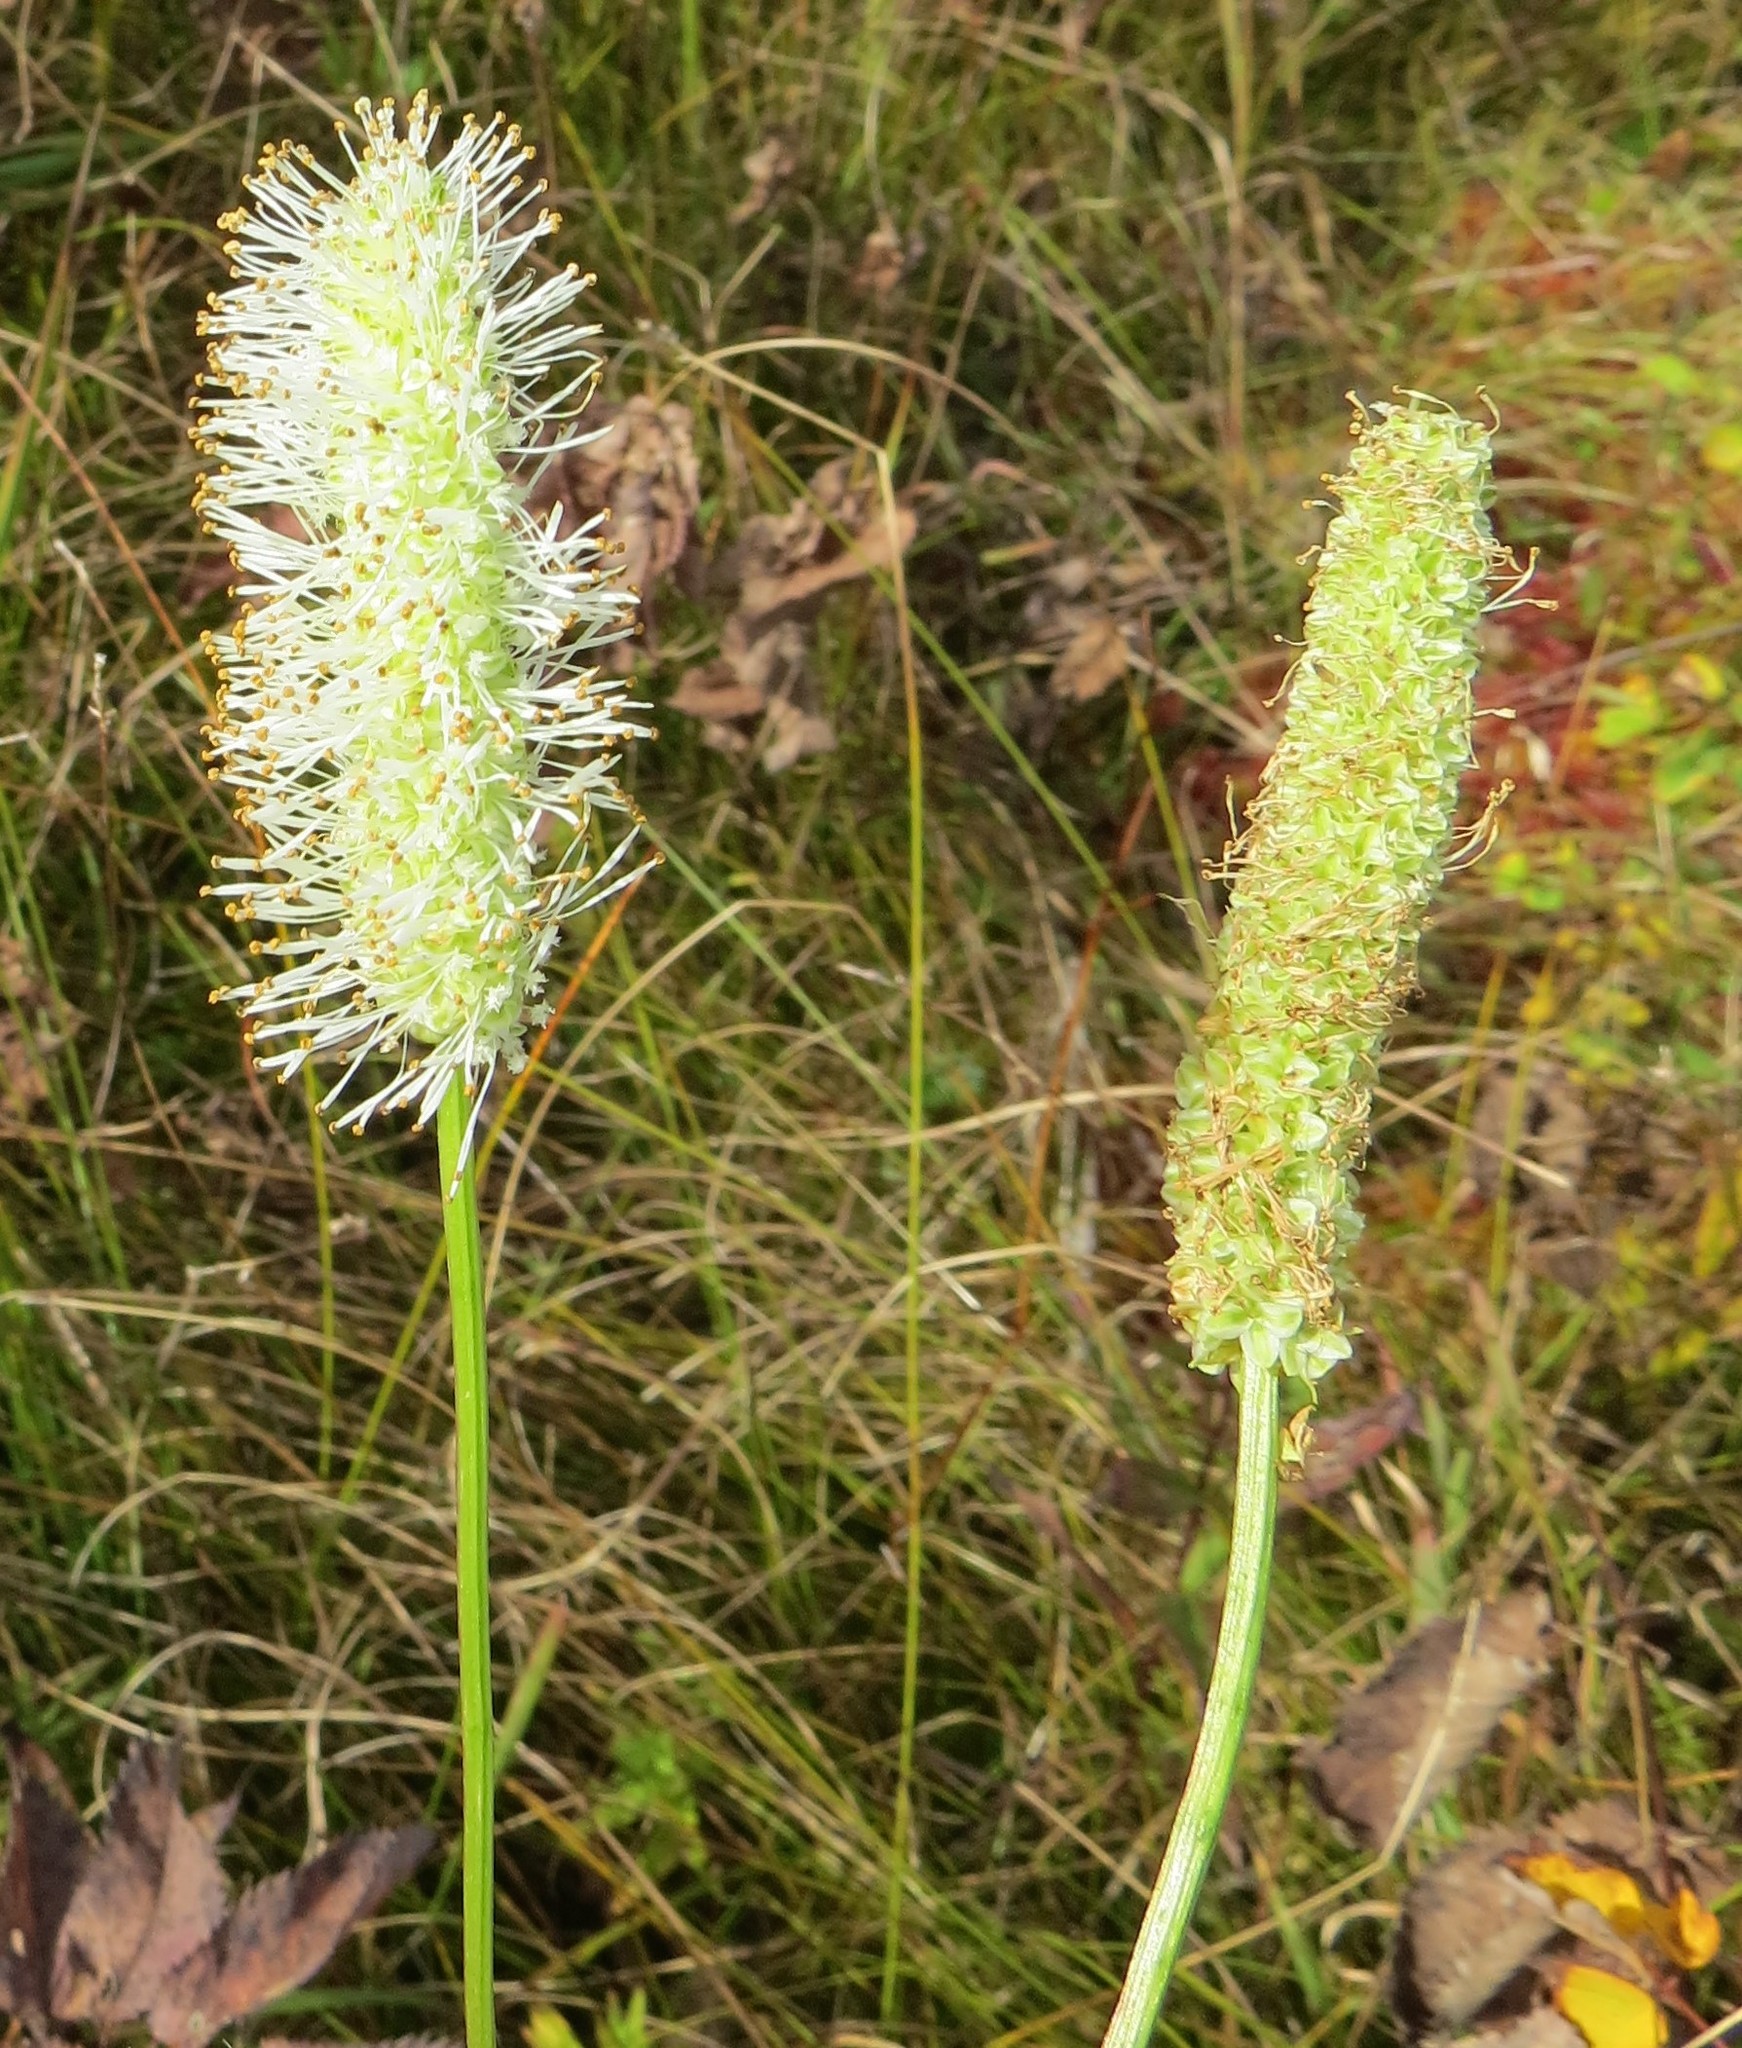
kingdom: Plantae
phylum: Tracheophyta
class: Magnoliopsida
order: Rosales
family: Rosaceae
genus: Sanguisorba
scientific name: Sanguisorba canadensis
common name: White burnet
